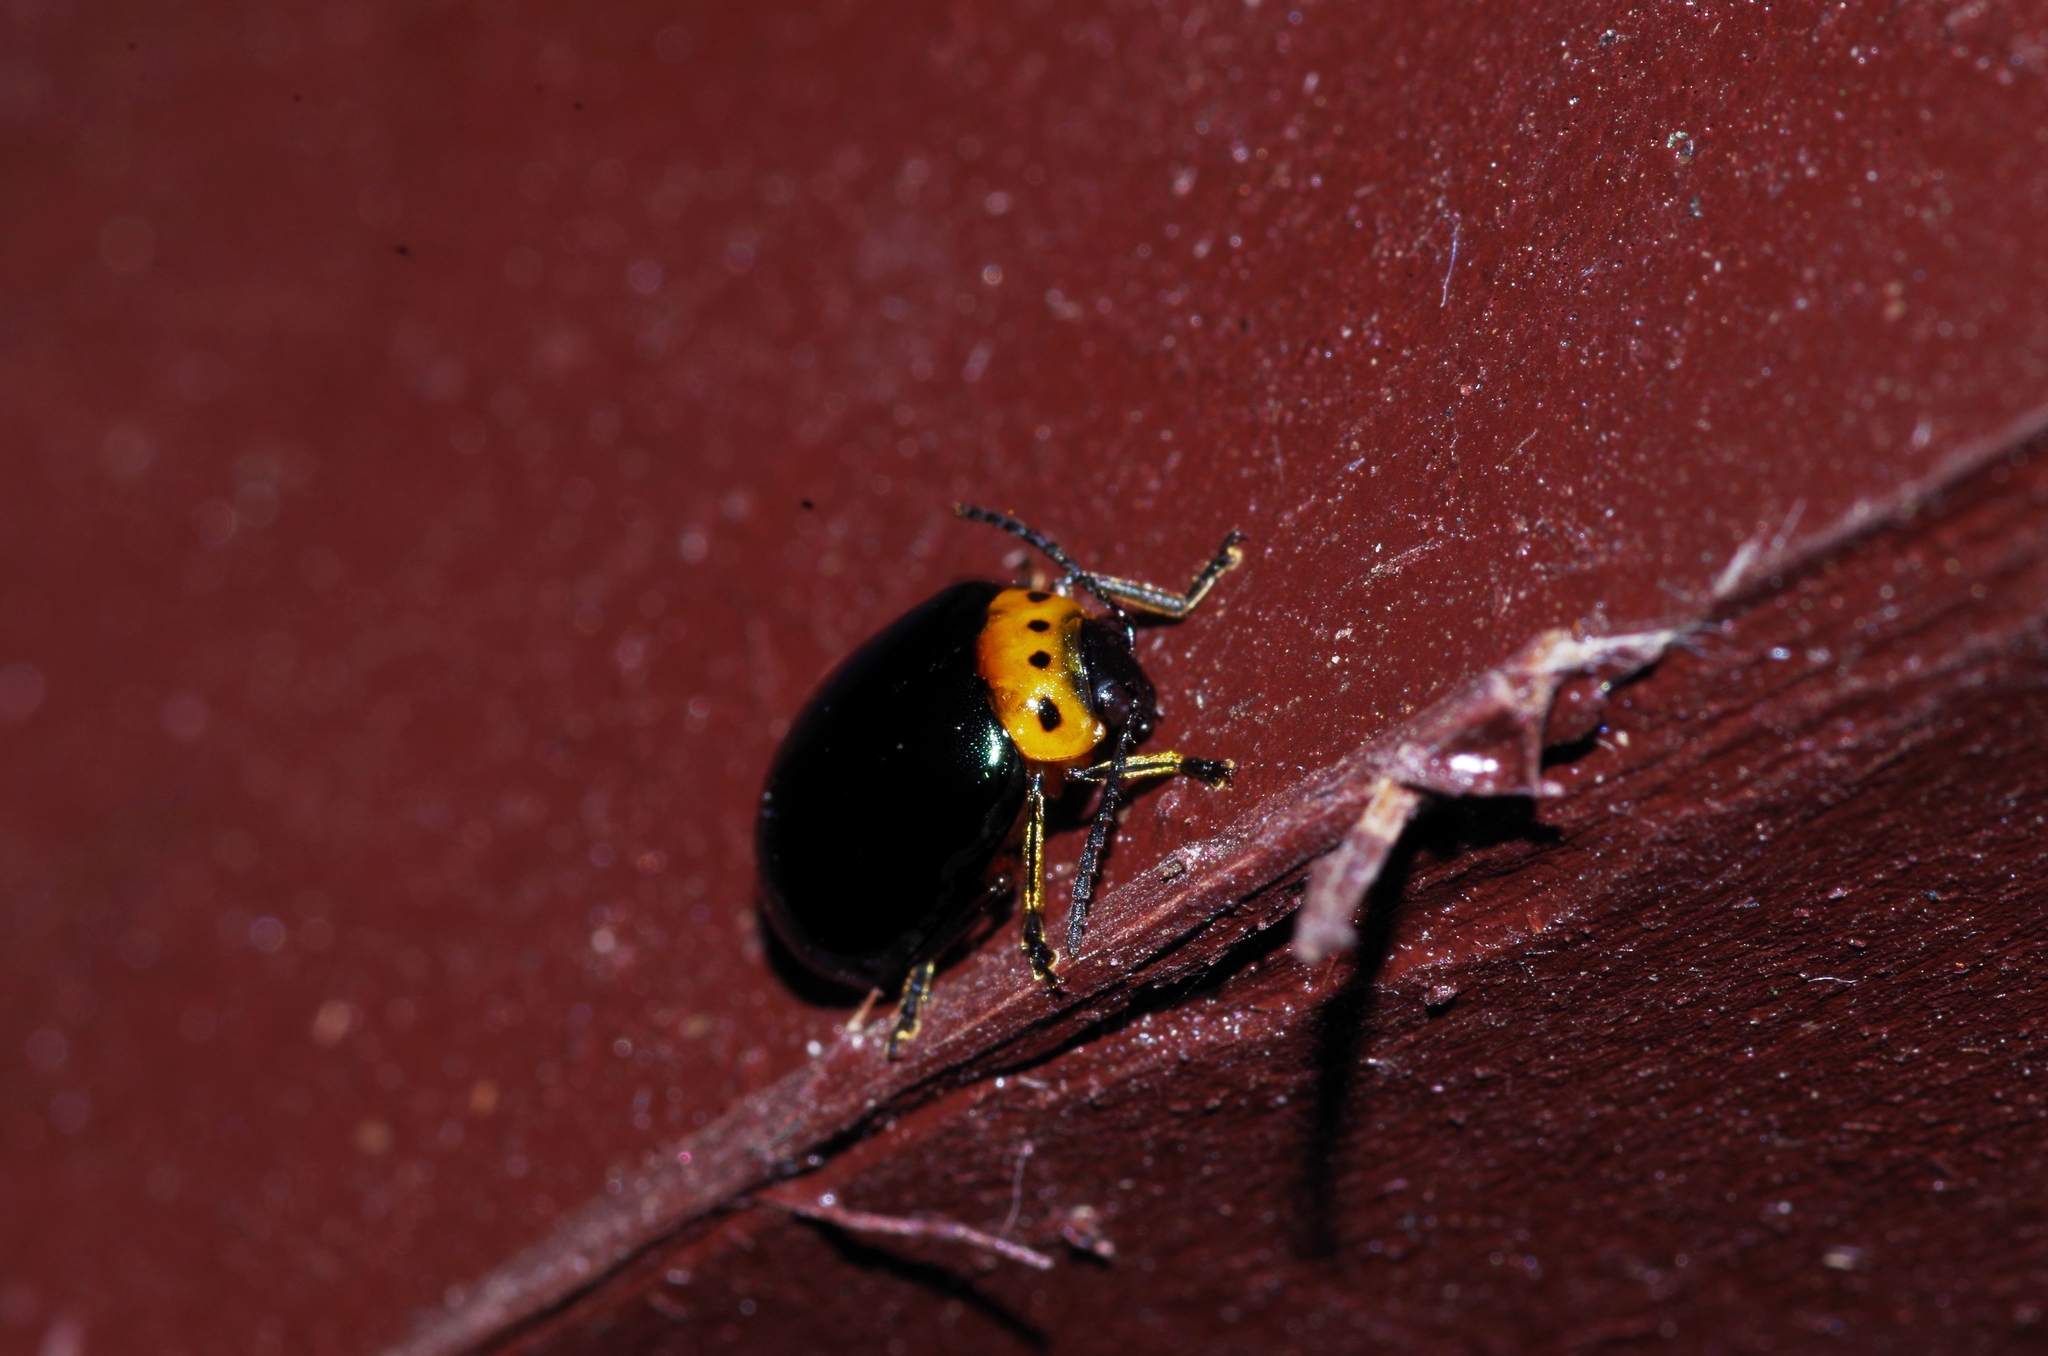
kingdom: Animalia
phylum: Arthropoda
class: Insecta
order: Coleoptera
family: Chrysomelidae
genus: Morphosphaera
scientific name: Morphosphaera caerulea
